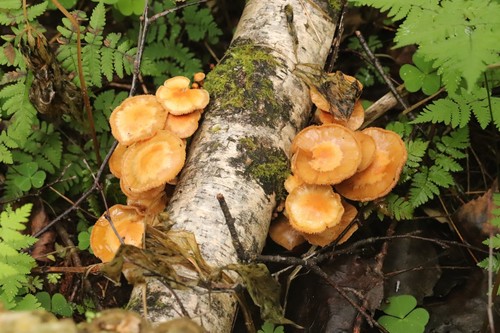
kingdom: Fungi
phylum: Basidiomycota
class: Agaricomycetes
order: Agaricales
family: Strophariaceae
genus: Kuehneromyces
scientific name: Kuehneromyces mutabilis
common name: Sheathed woodtuft
